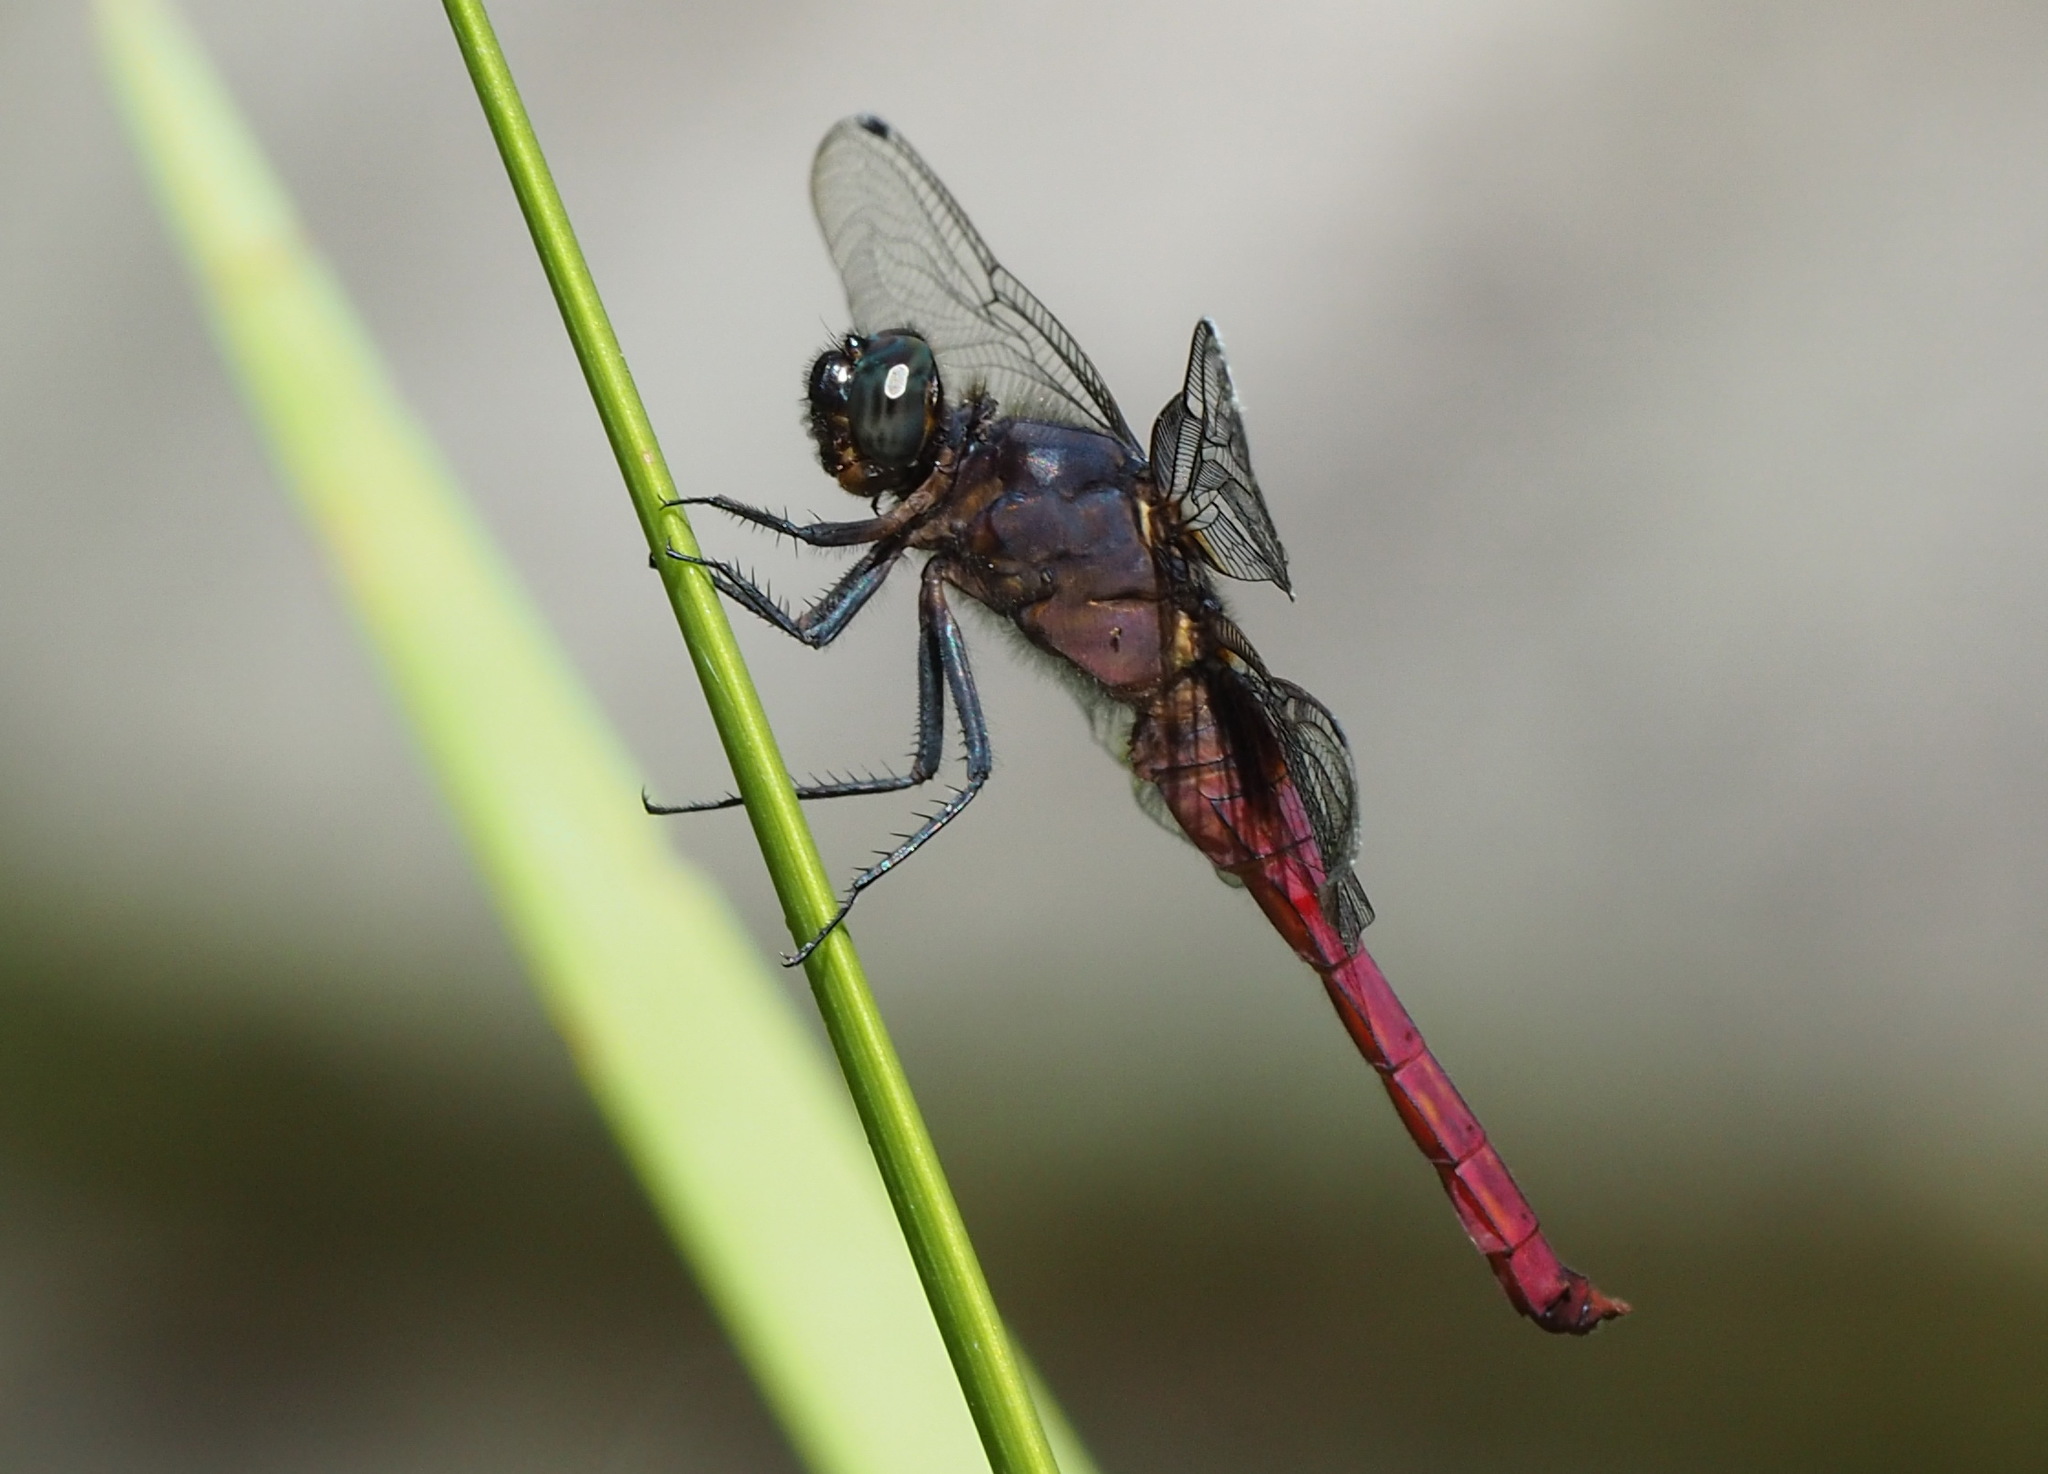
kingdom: Animalia
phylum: Arthropoda
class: Insecta
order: Odonata
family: Libellulidae
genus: Orthetrum
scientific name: Orthetrum pruinosum
